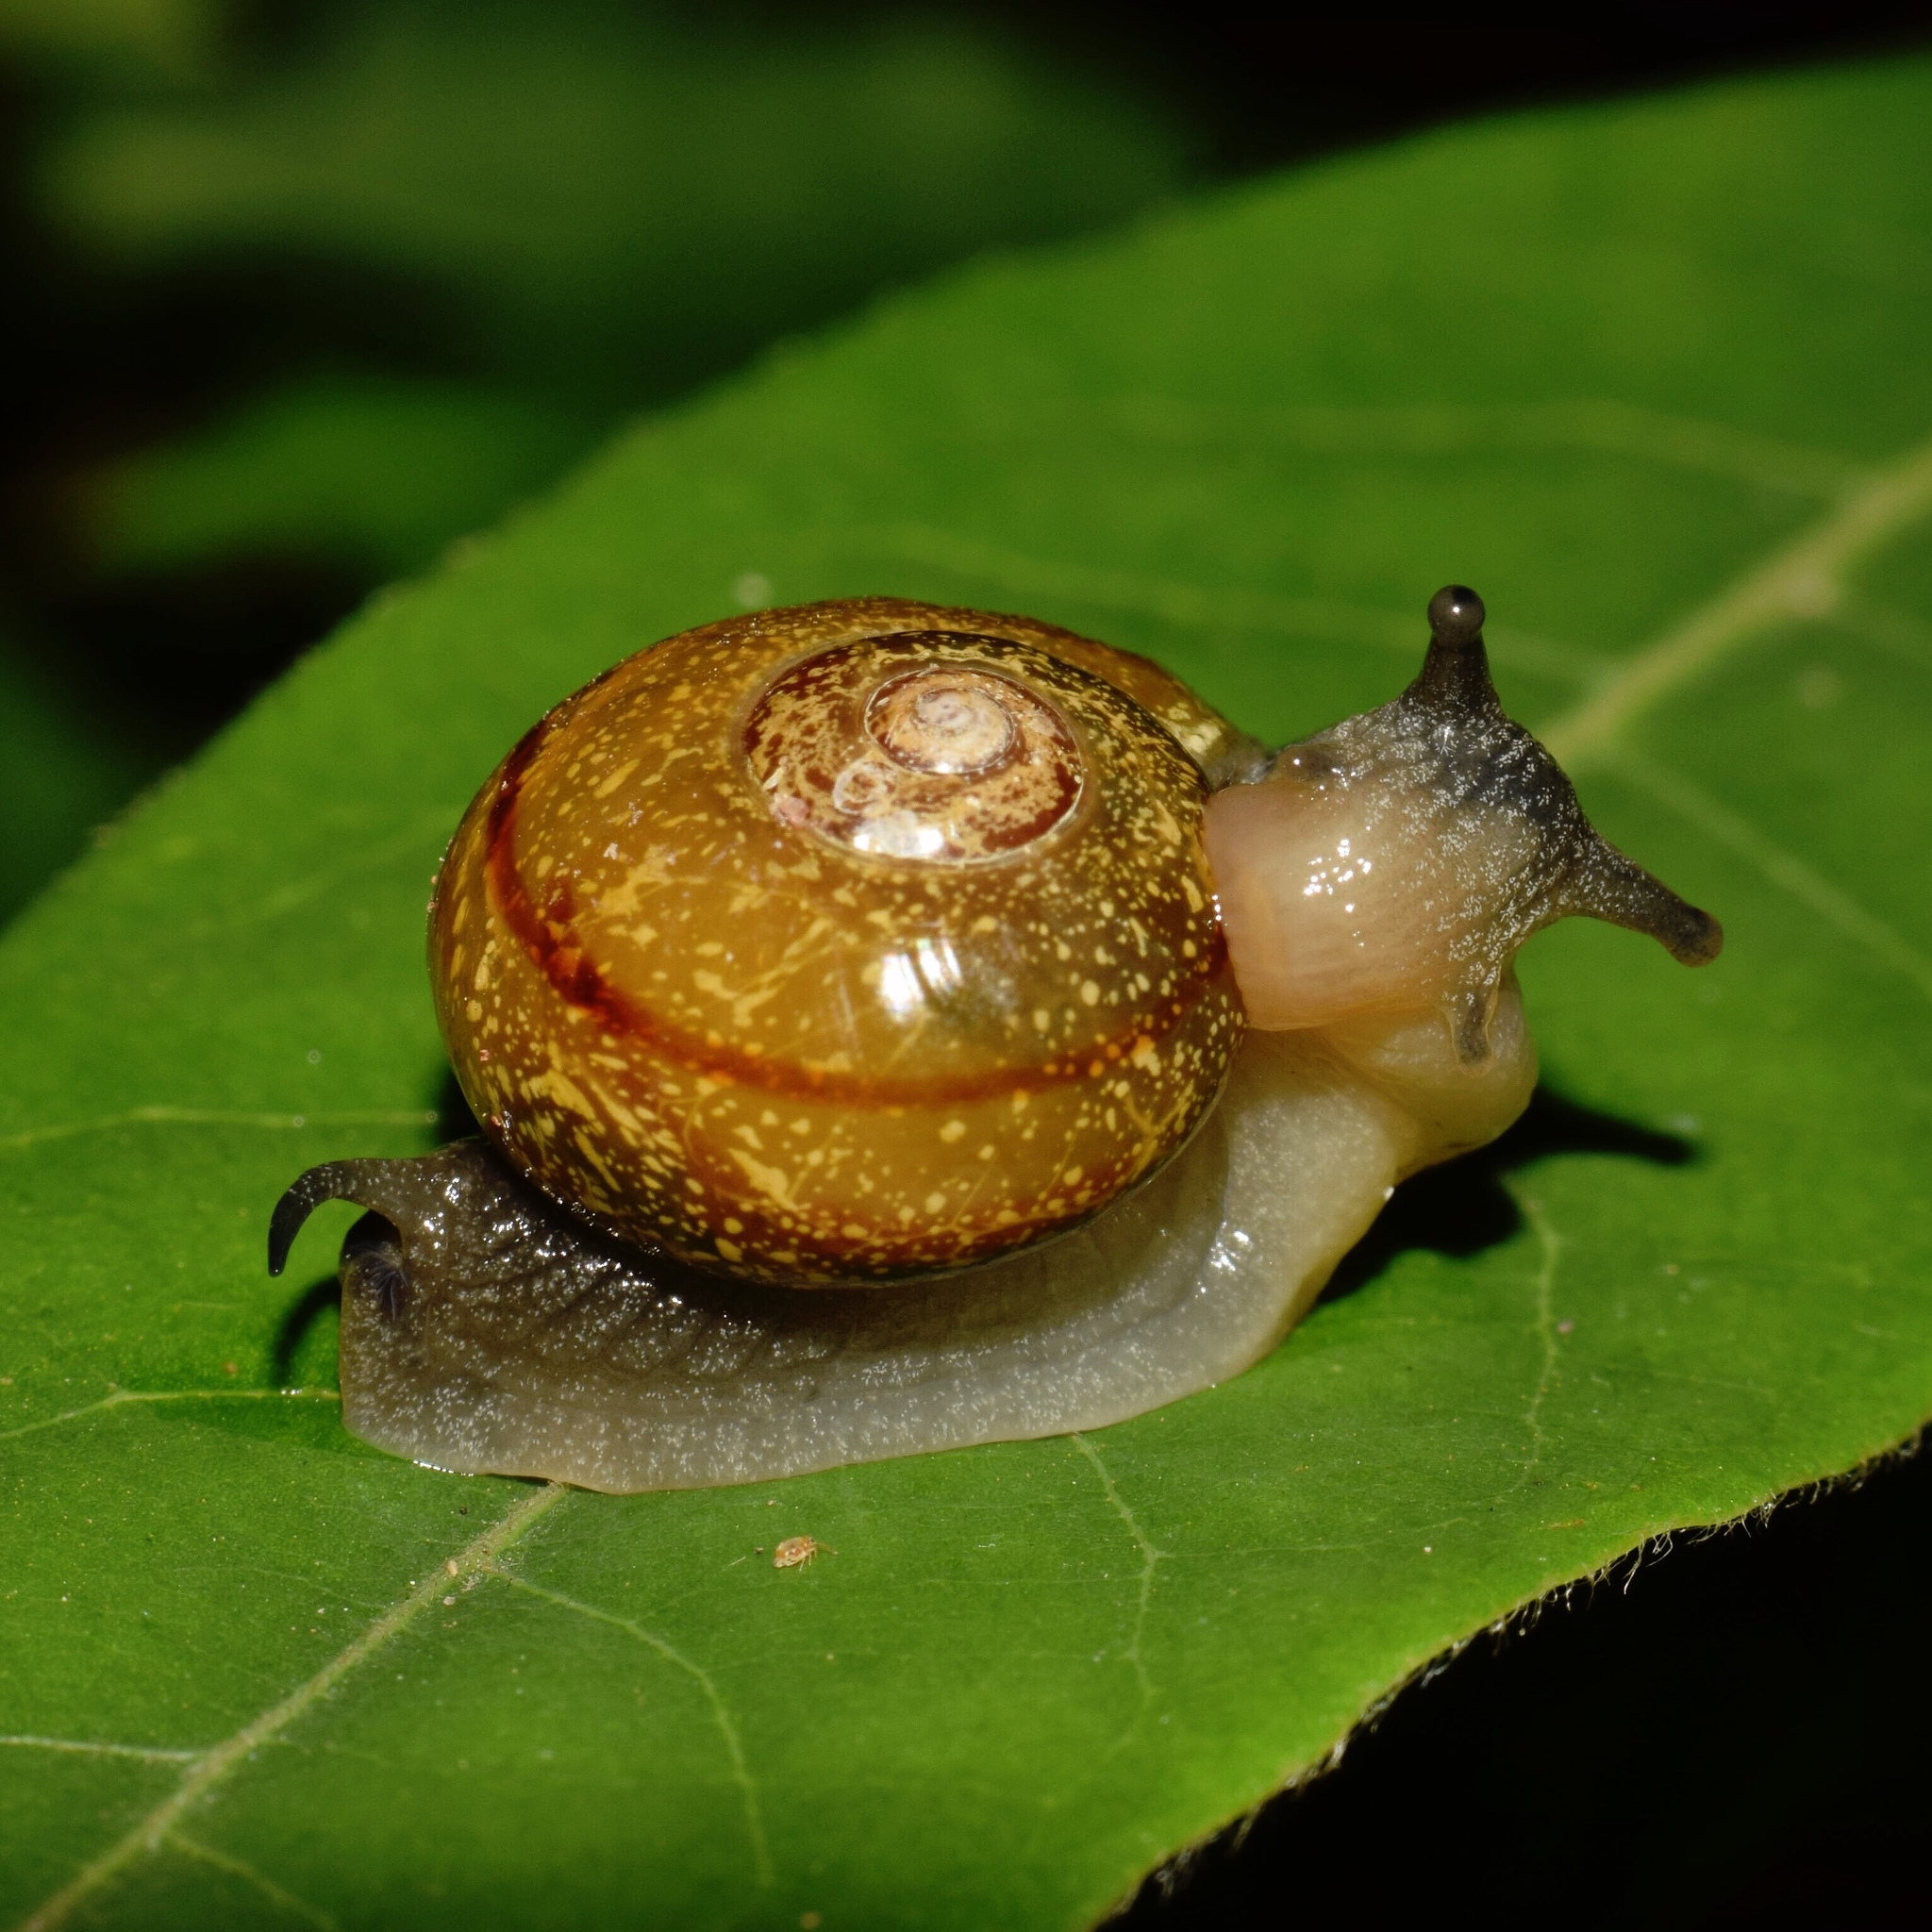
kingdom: Animalia
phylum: Mollusca
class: Gastropoda
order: Stylommatophora
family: Urocyclidae
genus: Kerkophorus
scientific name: Kerkophorus corneus
